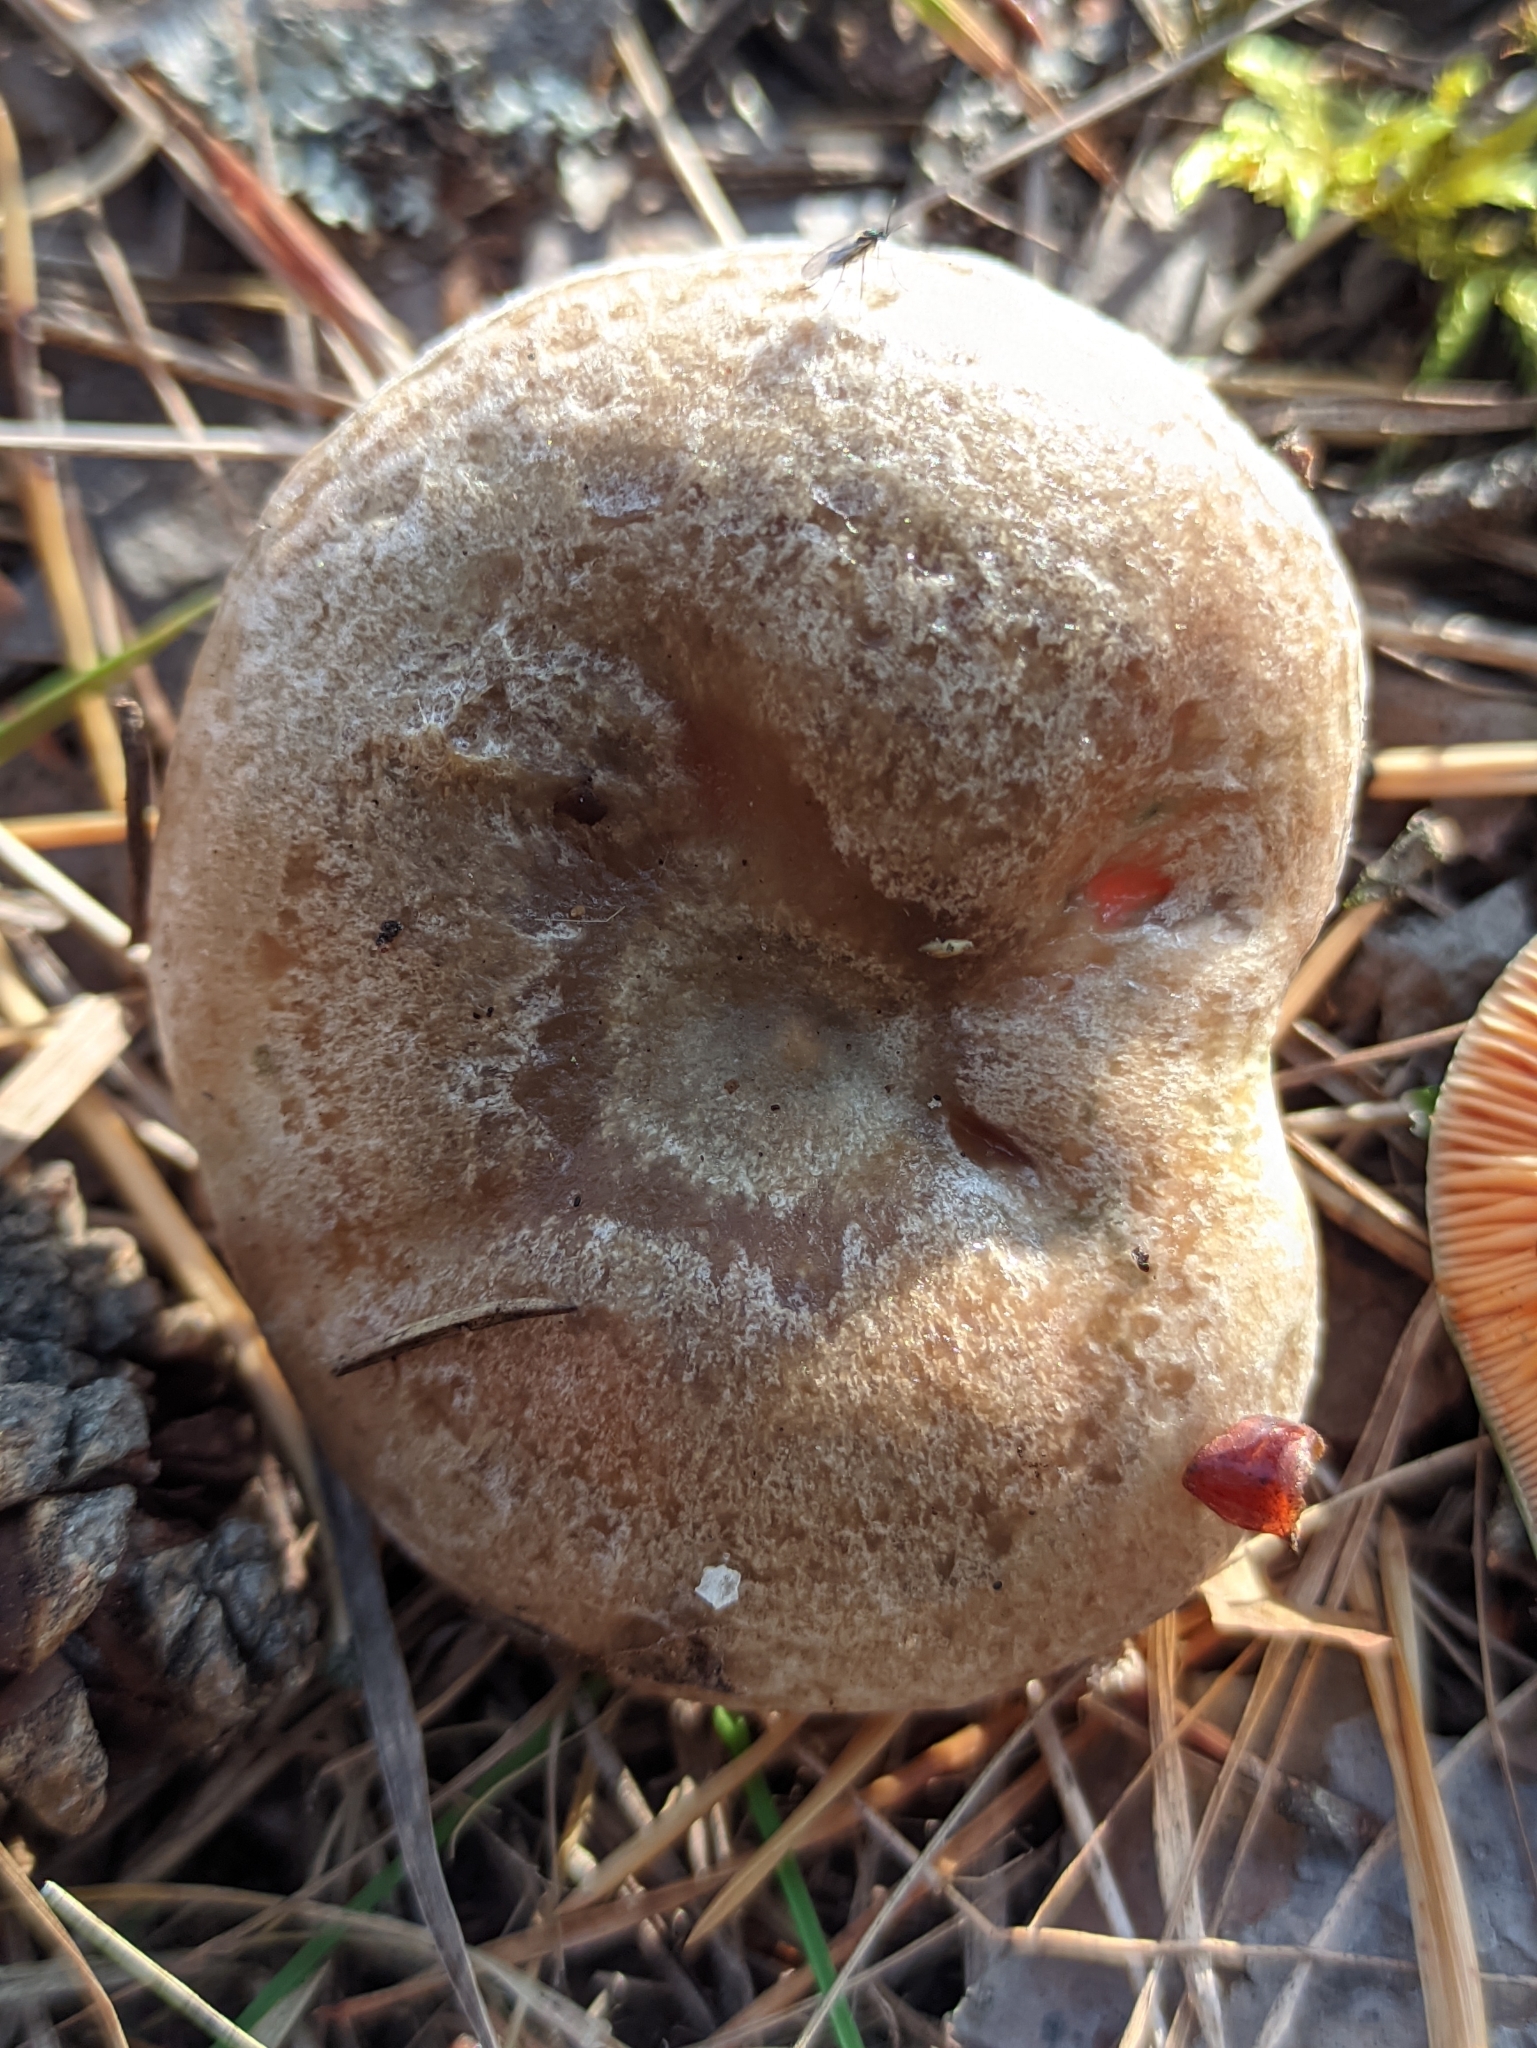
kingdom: Fungi
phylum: Basidiomycota
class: Agaricomycetes
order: Russulales
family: Russulaceae
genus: Lactarius
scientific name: Lactarius deliciosus
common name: Saffron milk-cap
